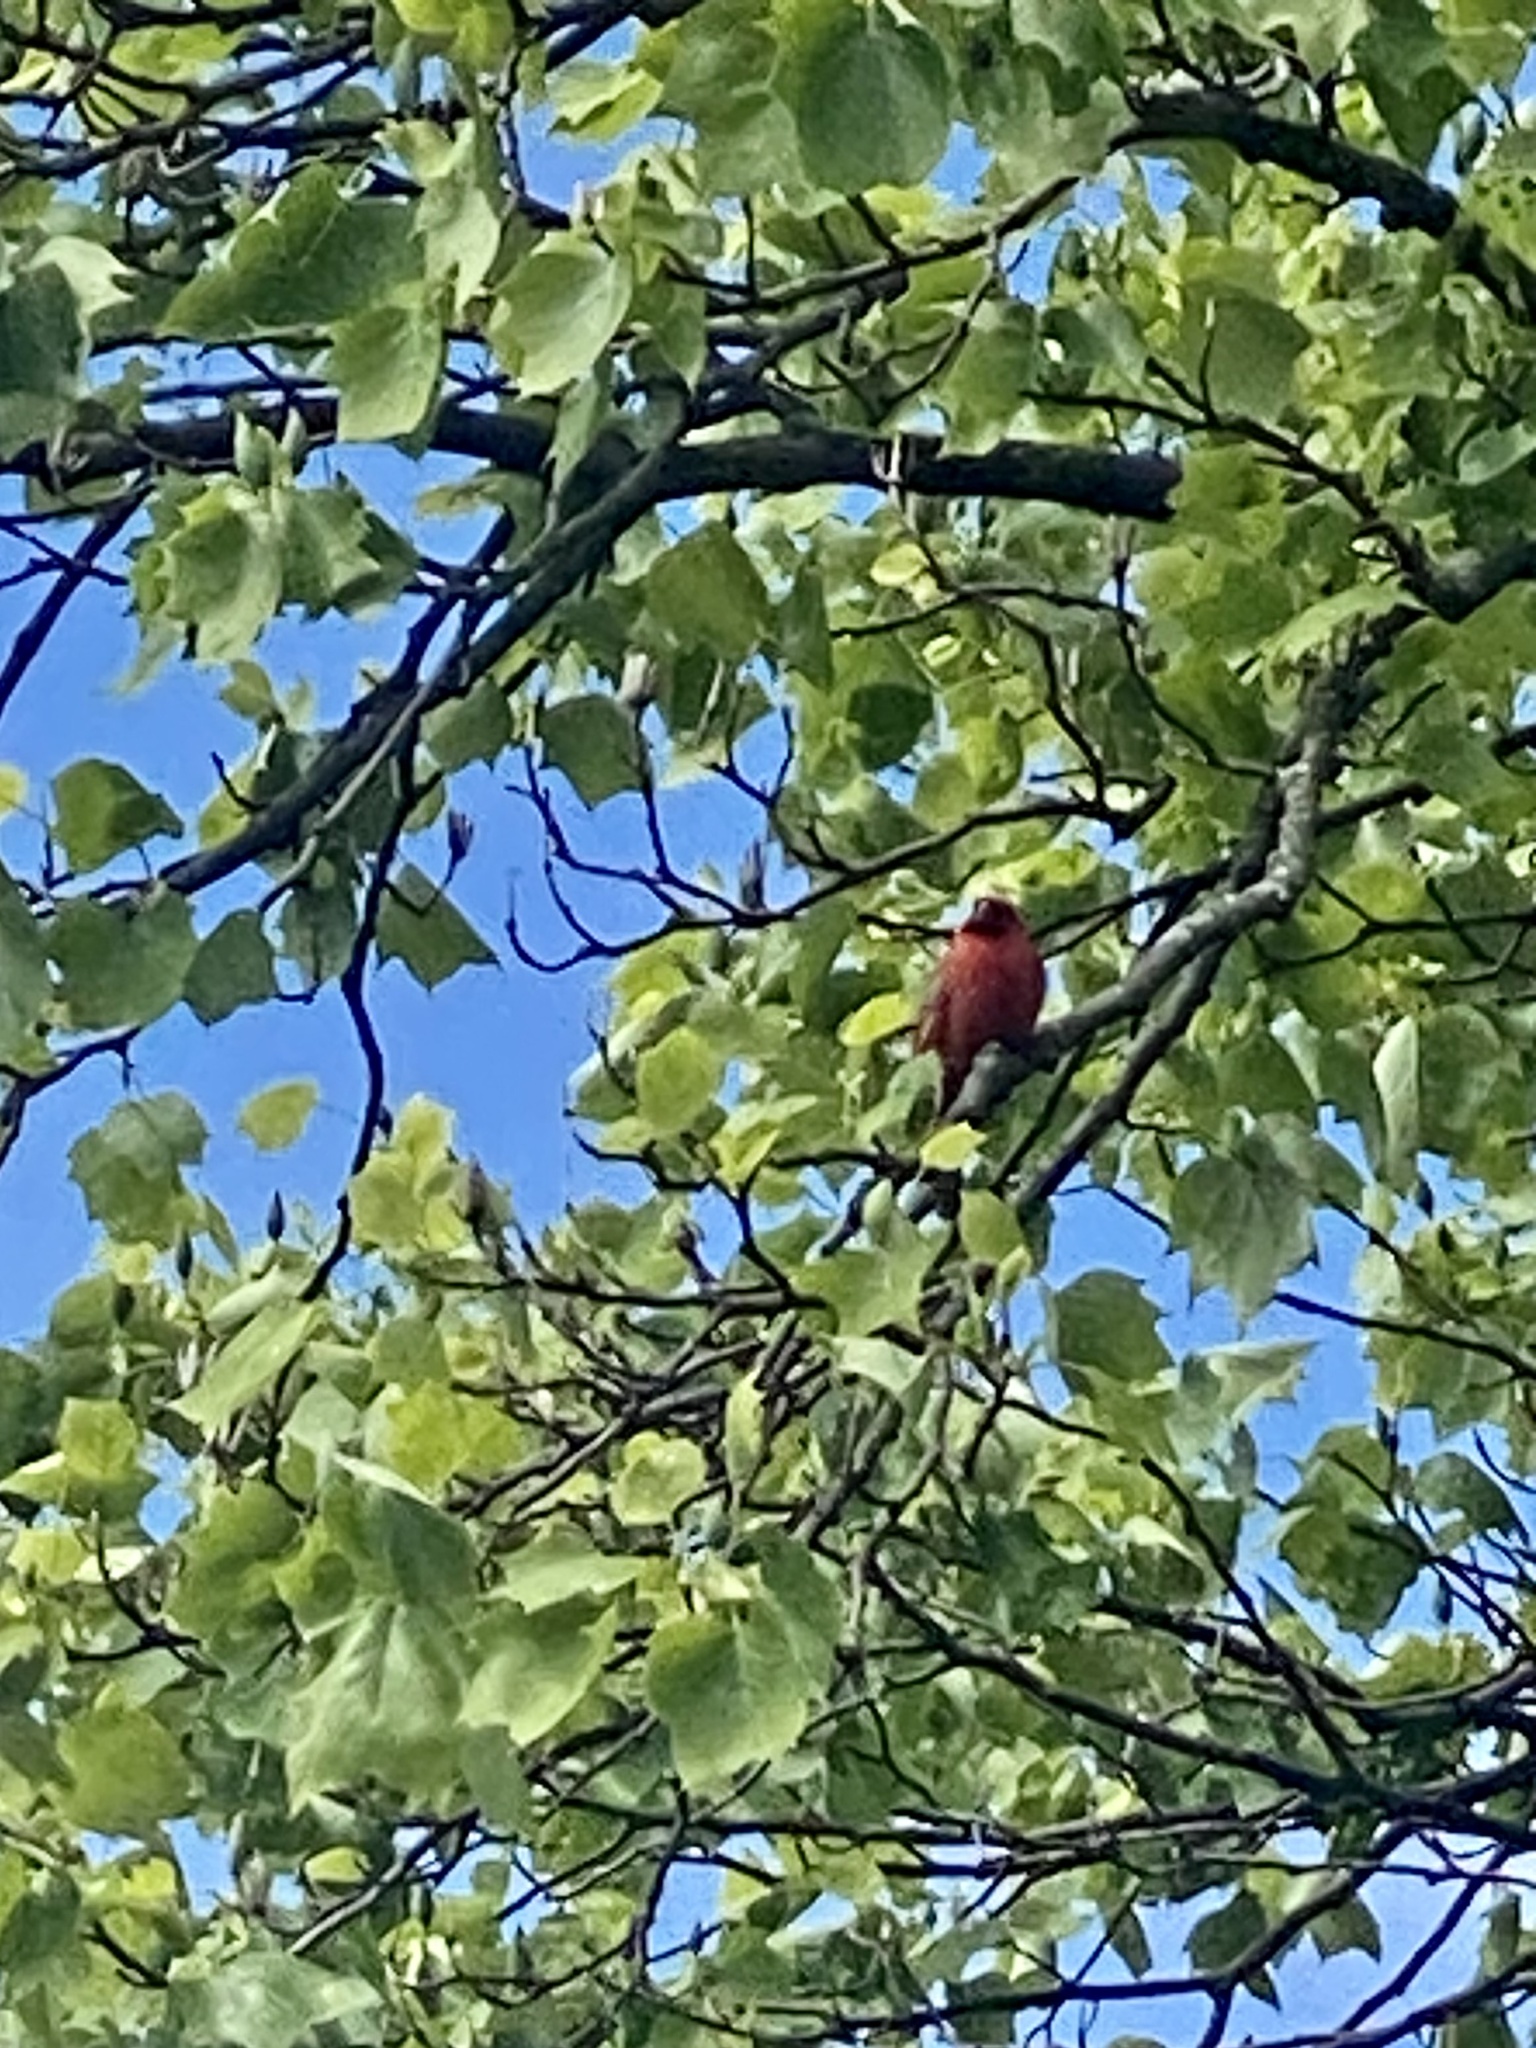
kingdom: Animalia
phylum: Chordata
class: Aves
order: Passeriformes
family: Cardinalidae
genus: Cardinalis
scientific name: Cardinalis cardinalis
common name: Northern cardinal
